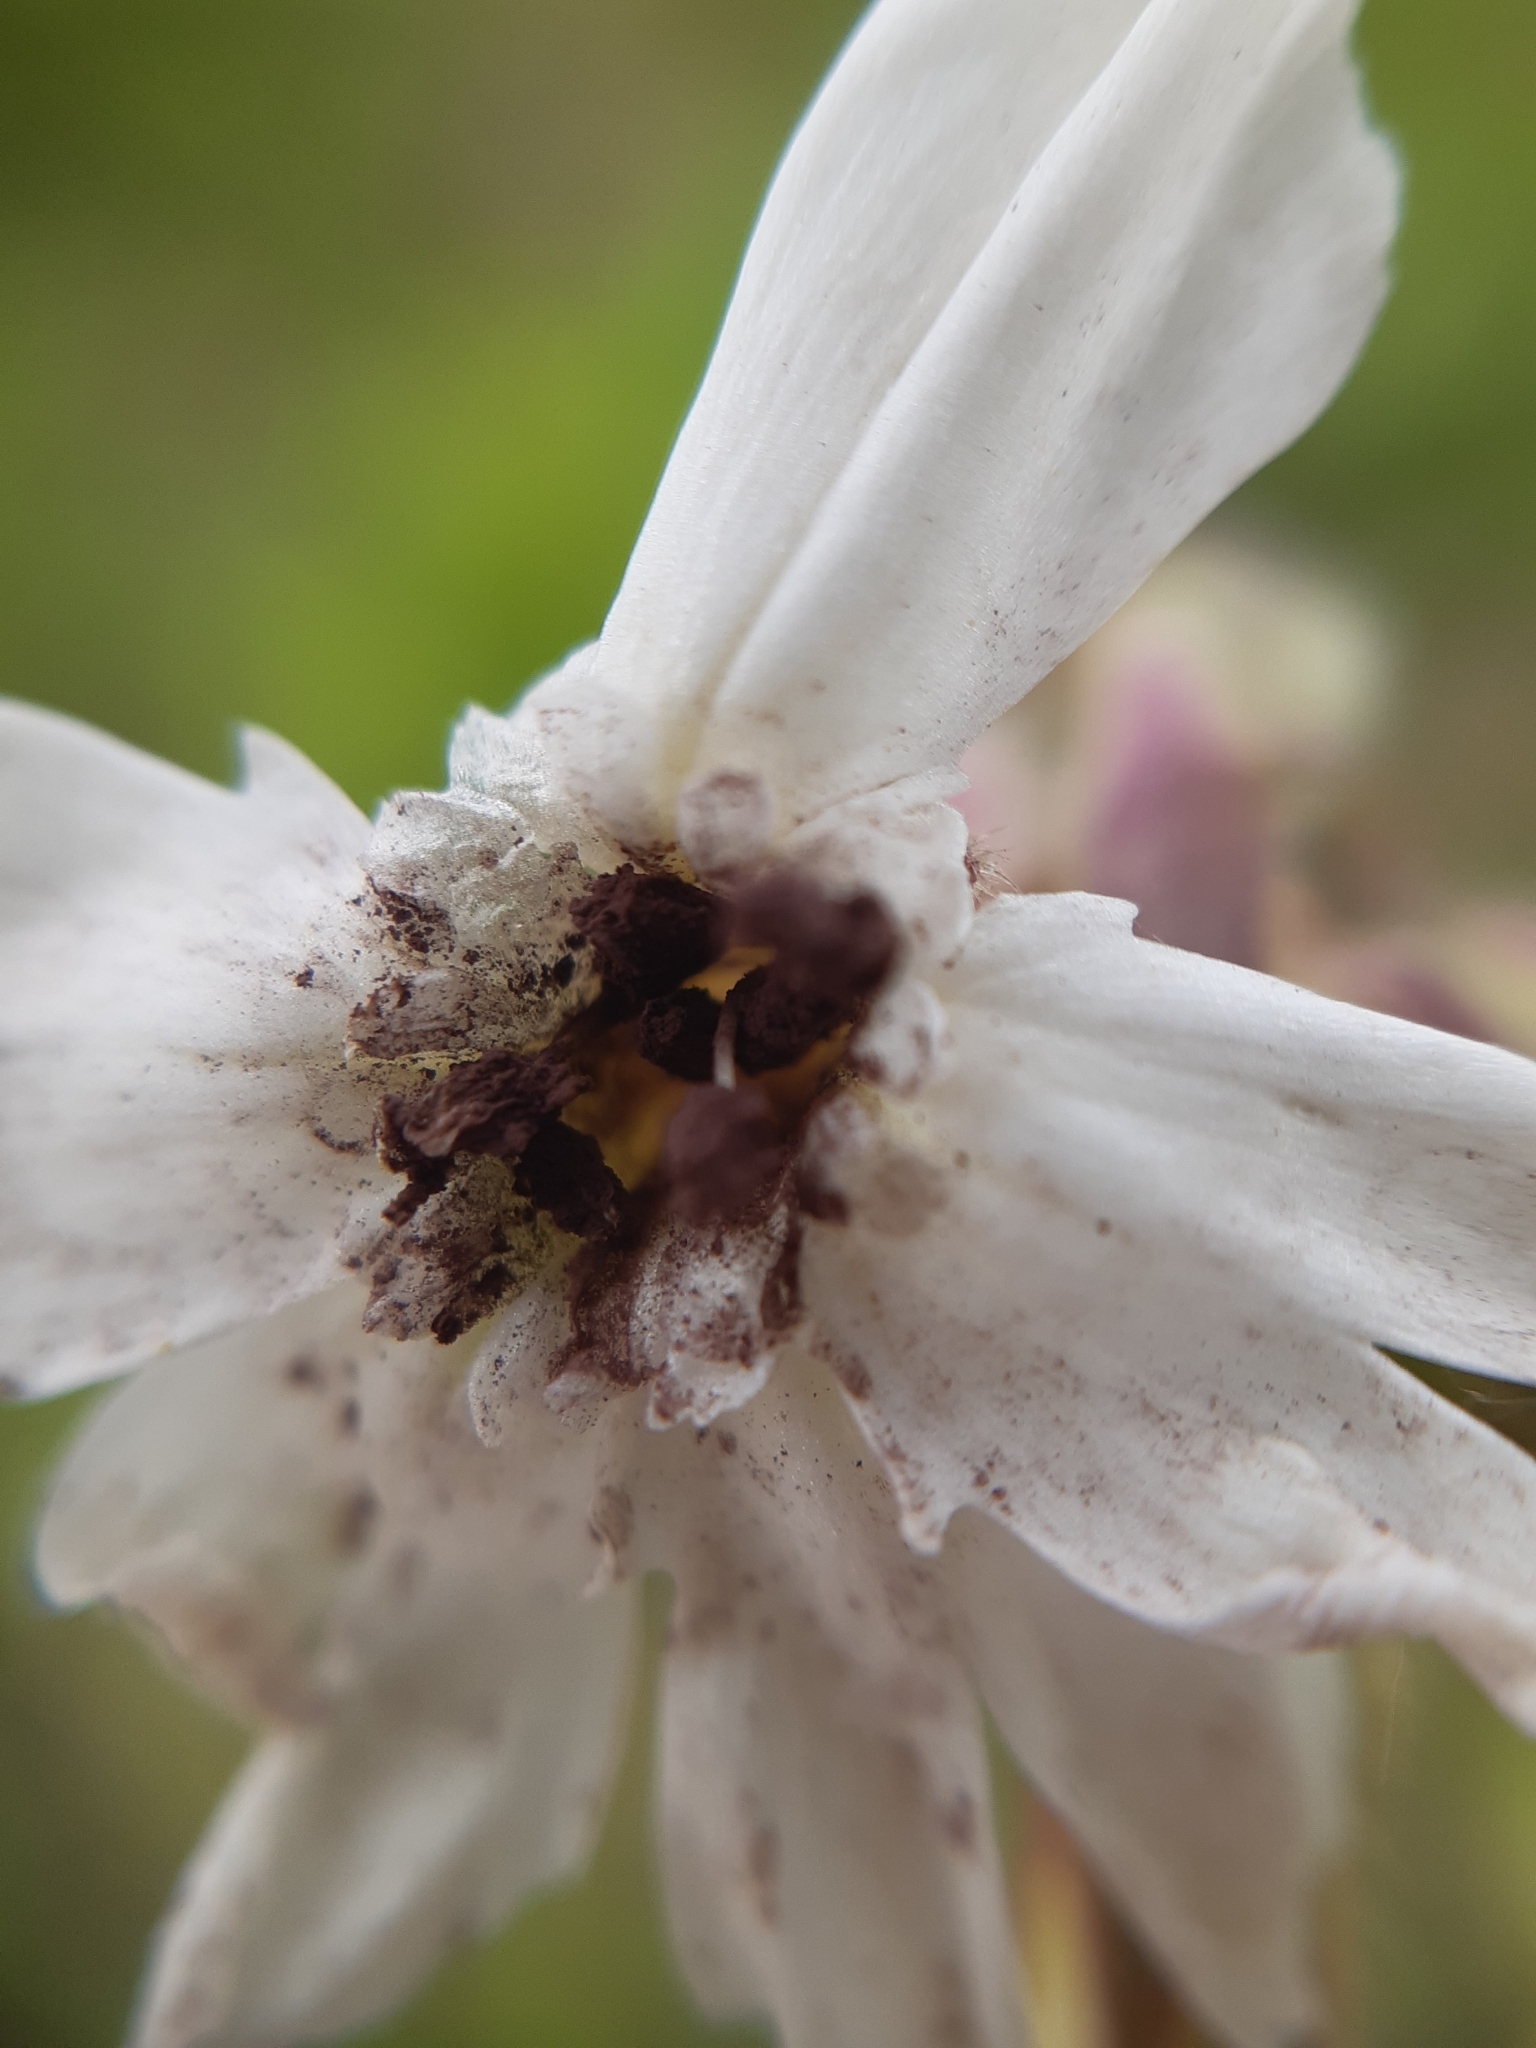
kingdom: Fungi
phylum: Basidiomycota
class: Microbotryomycetes
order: Microbotryales
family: Microbotryaceae
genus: Microbotryum
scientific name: Microbotryum lychnidis-dioicae
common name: Campion anther smut
